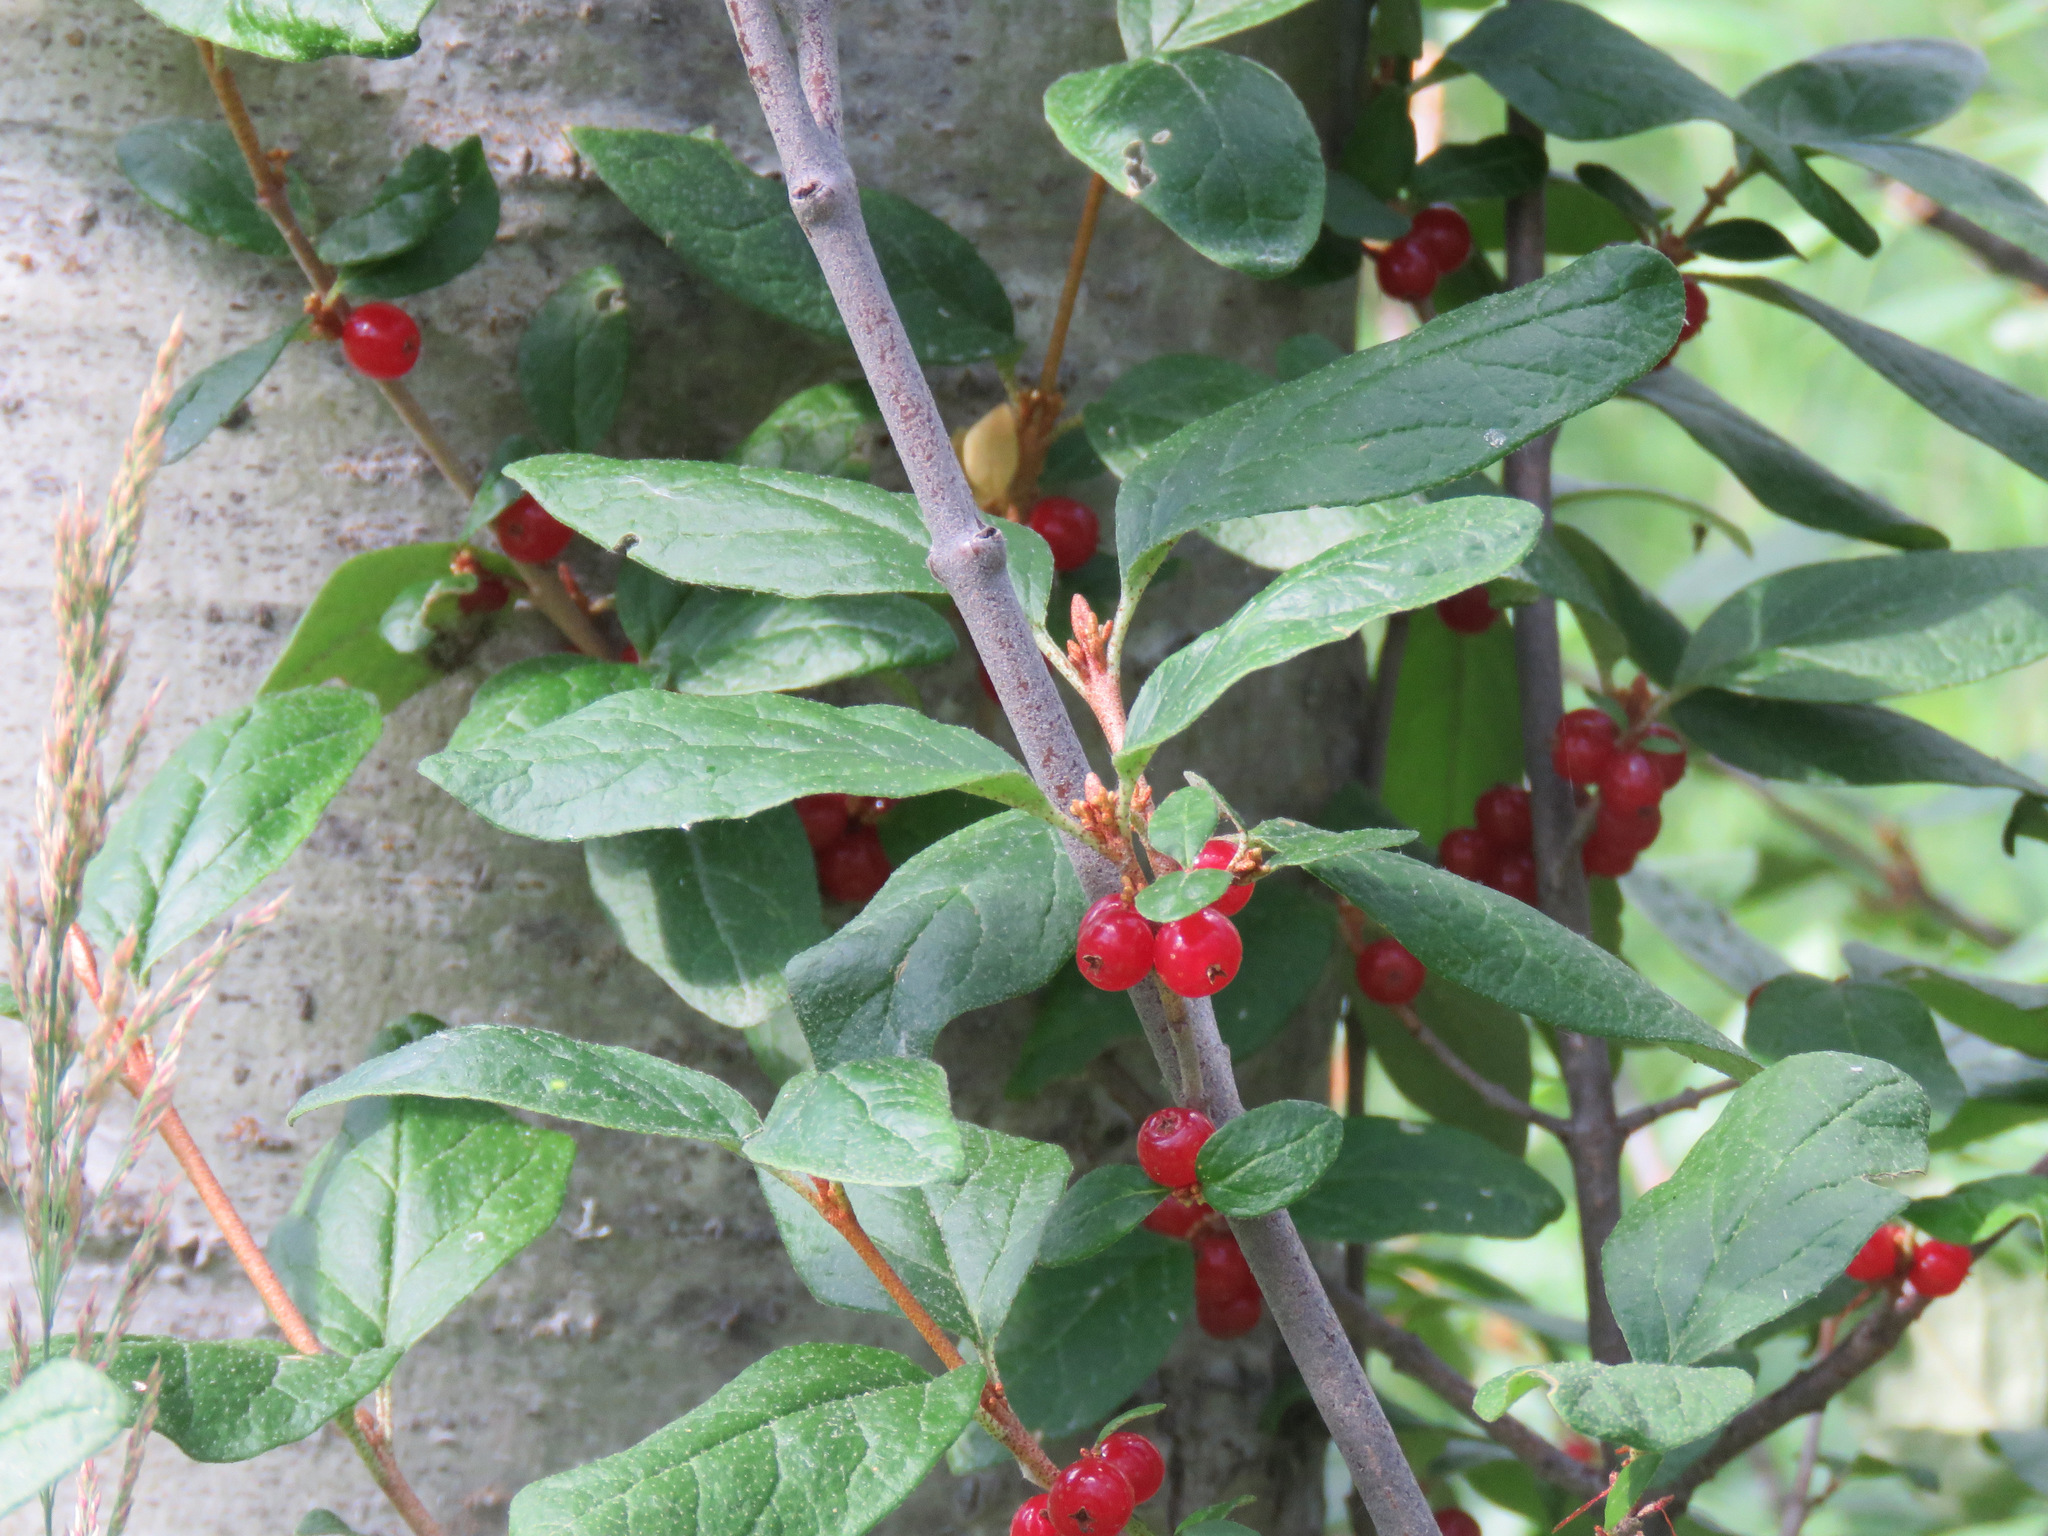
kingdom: Plantae
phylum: Tracheophyta
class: Magnoliopsida
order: Rosales
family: Elaeagnaceae
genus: Shepherdia
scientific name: Shepherdia canadensis
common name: Soapberry
